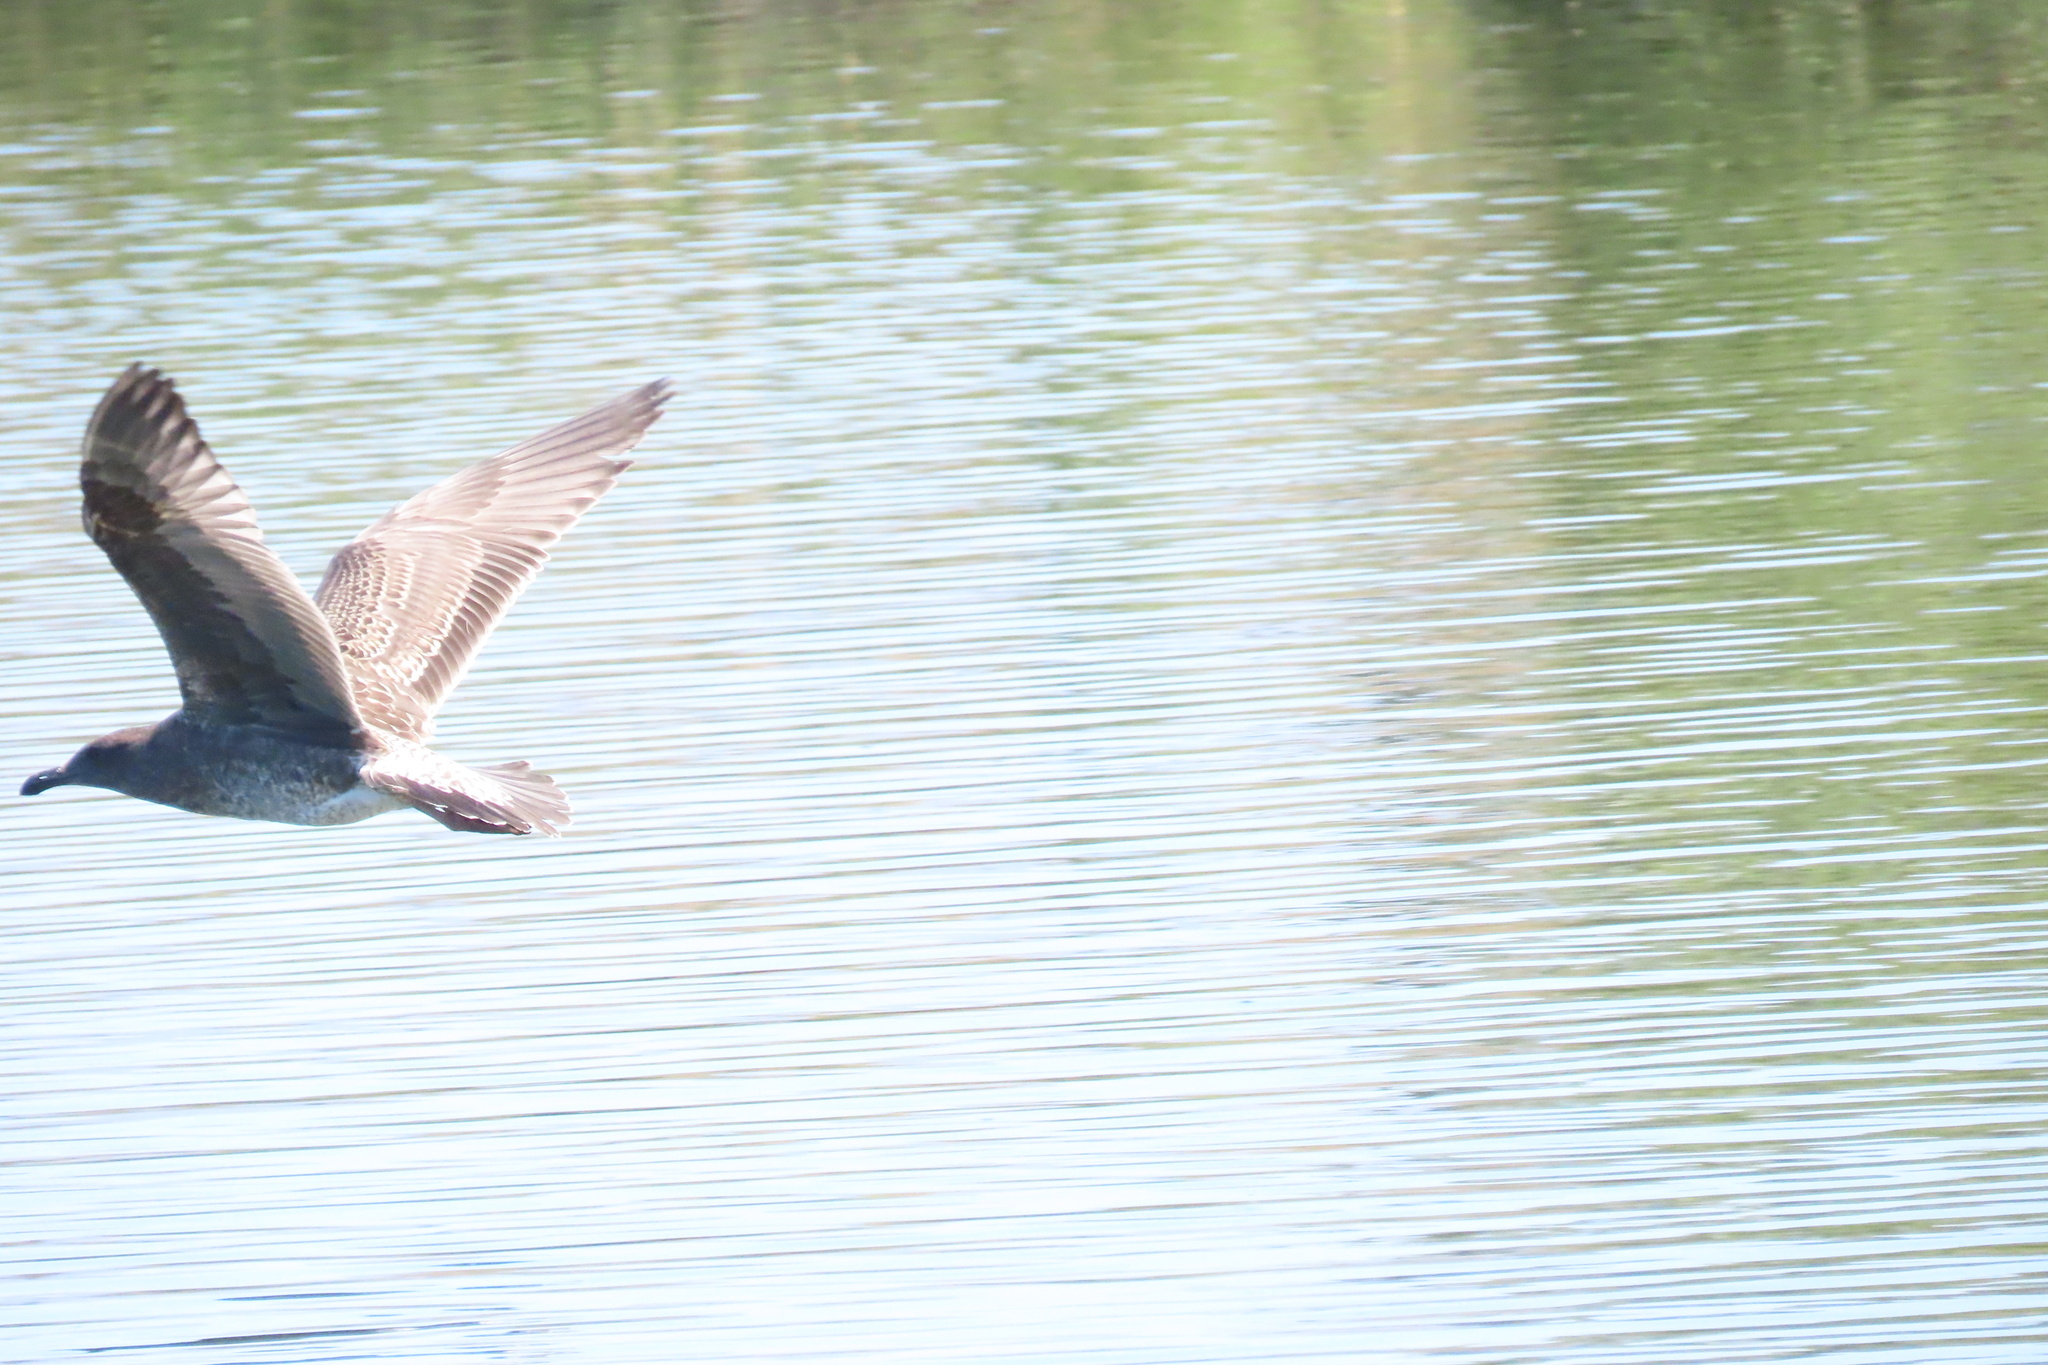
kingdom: Animalia
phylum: Chordata
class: Aves
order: Charadriiformes
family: Laridae
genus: Larus
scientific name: Larus occidentalis
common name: Western gull
